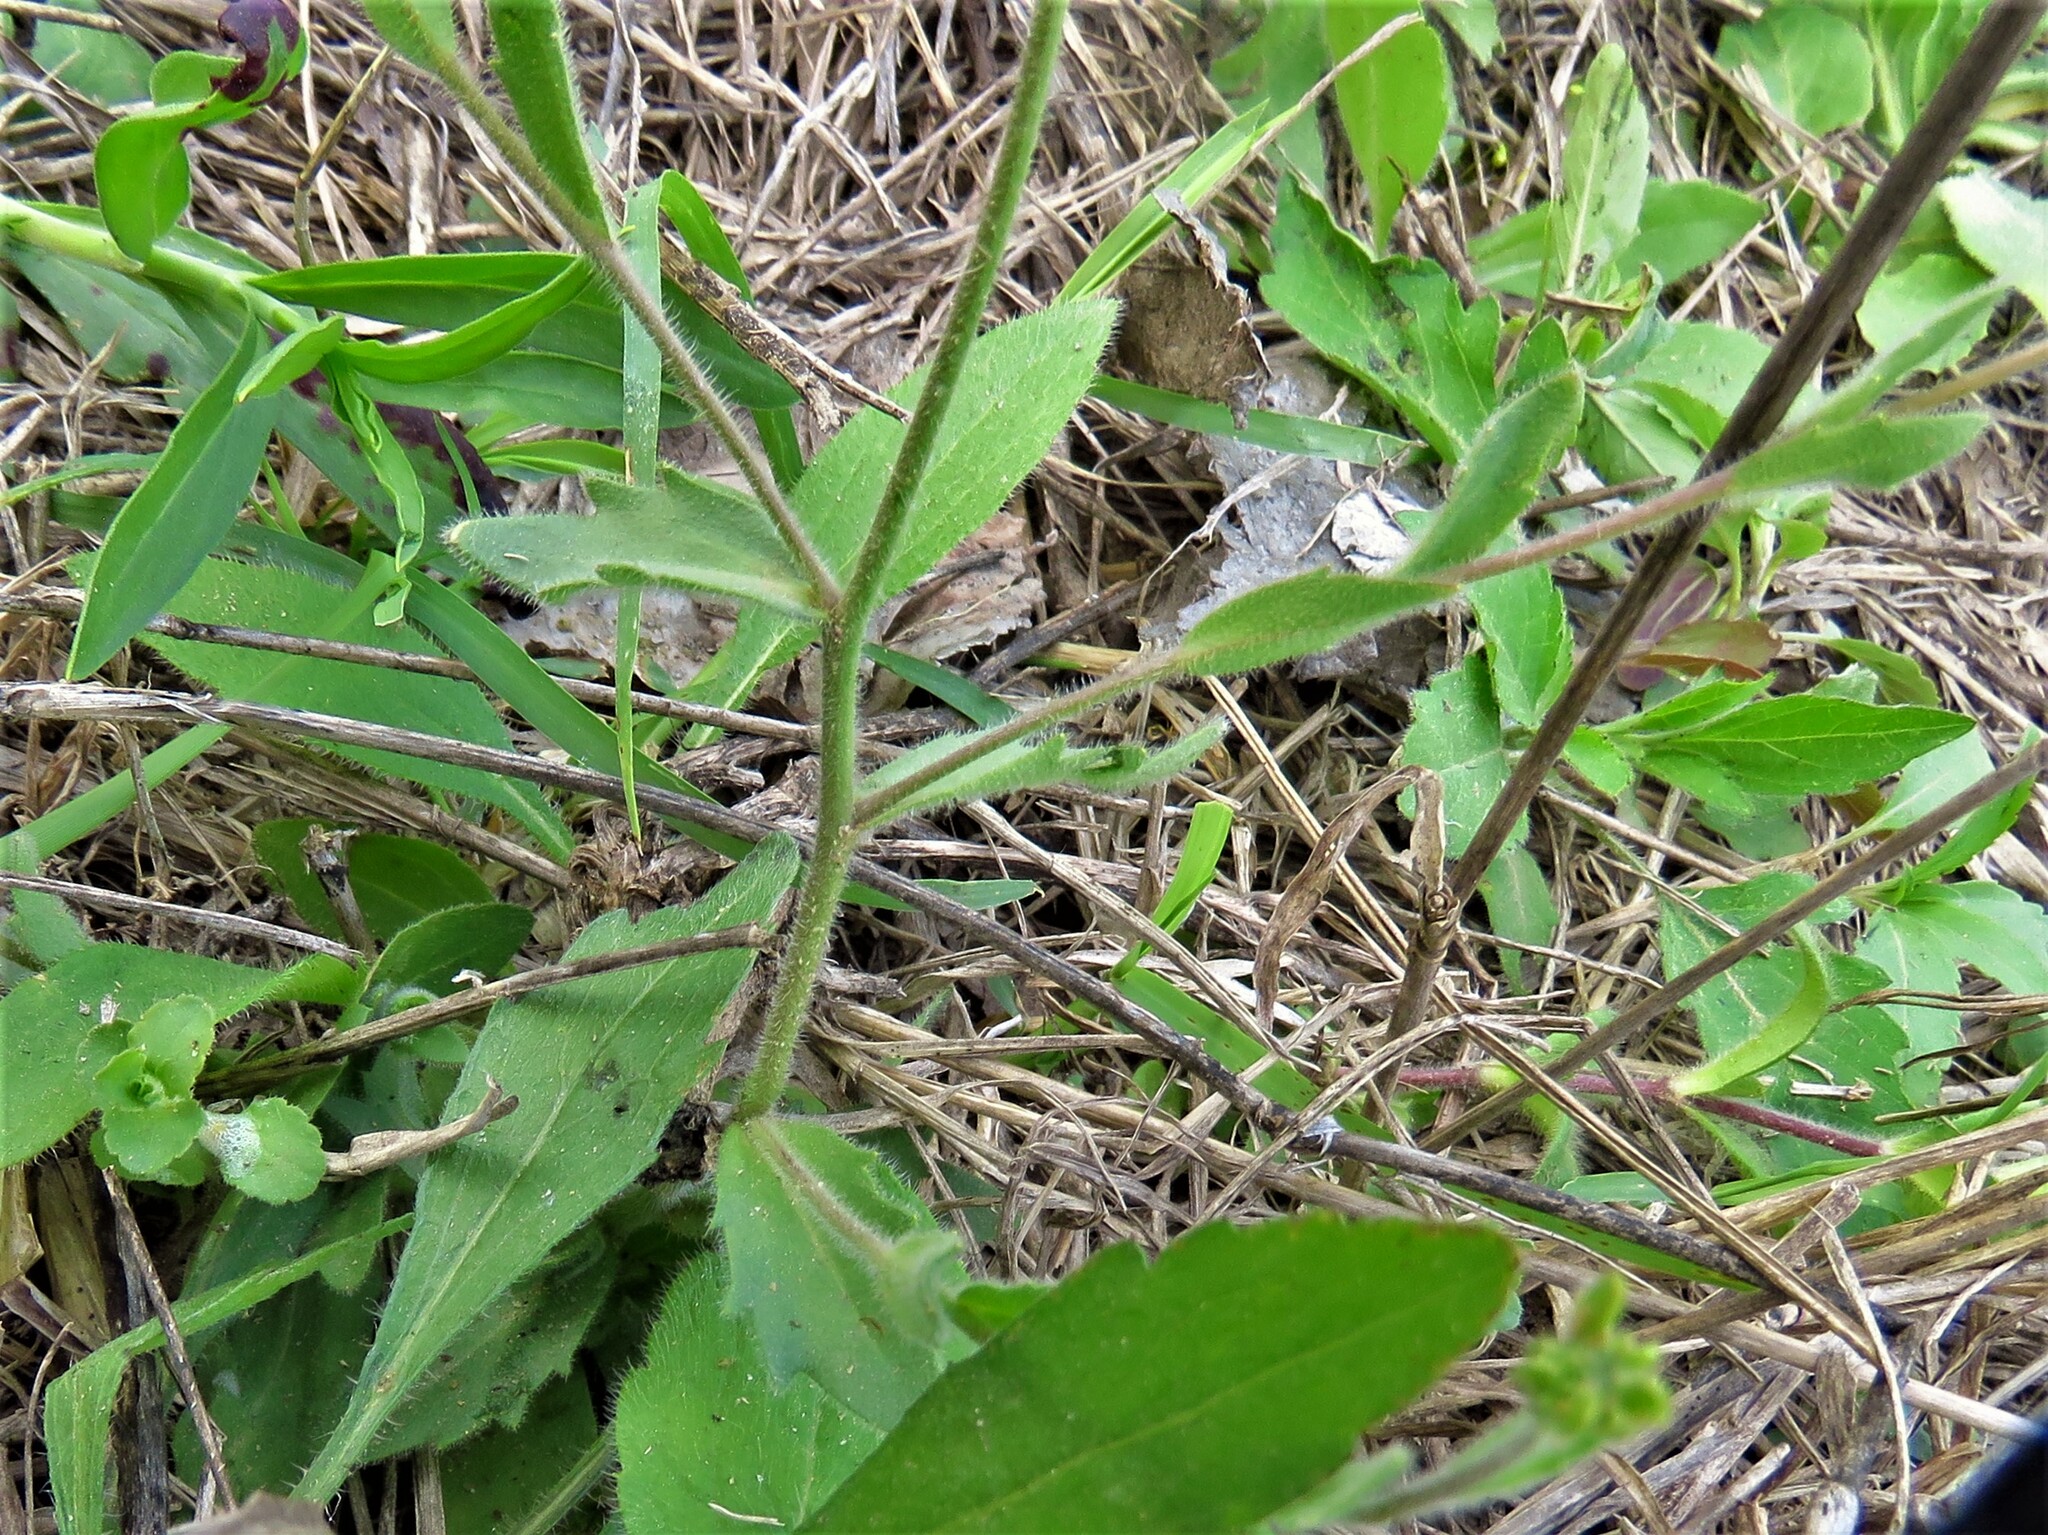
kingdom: Plantae
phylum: Tracheophyta
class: Magnoliopsida
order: Brassicales
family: Brassicaceae
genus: Tomostima
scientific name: Tomostima platycarpa
